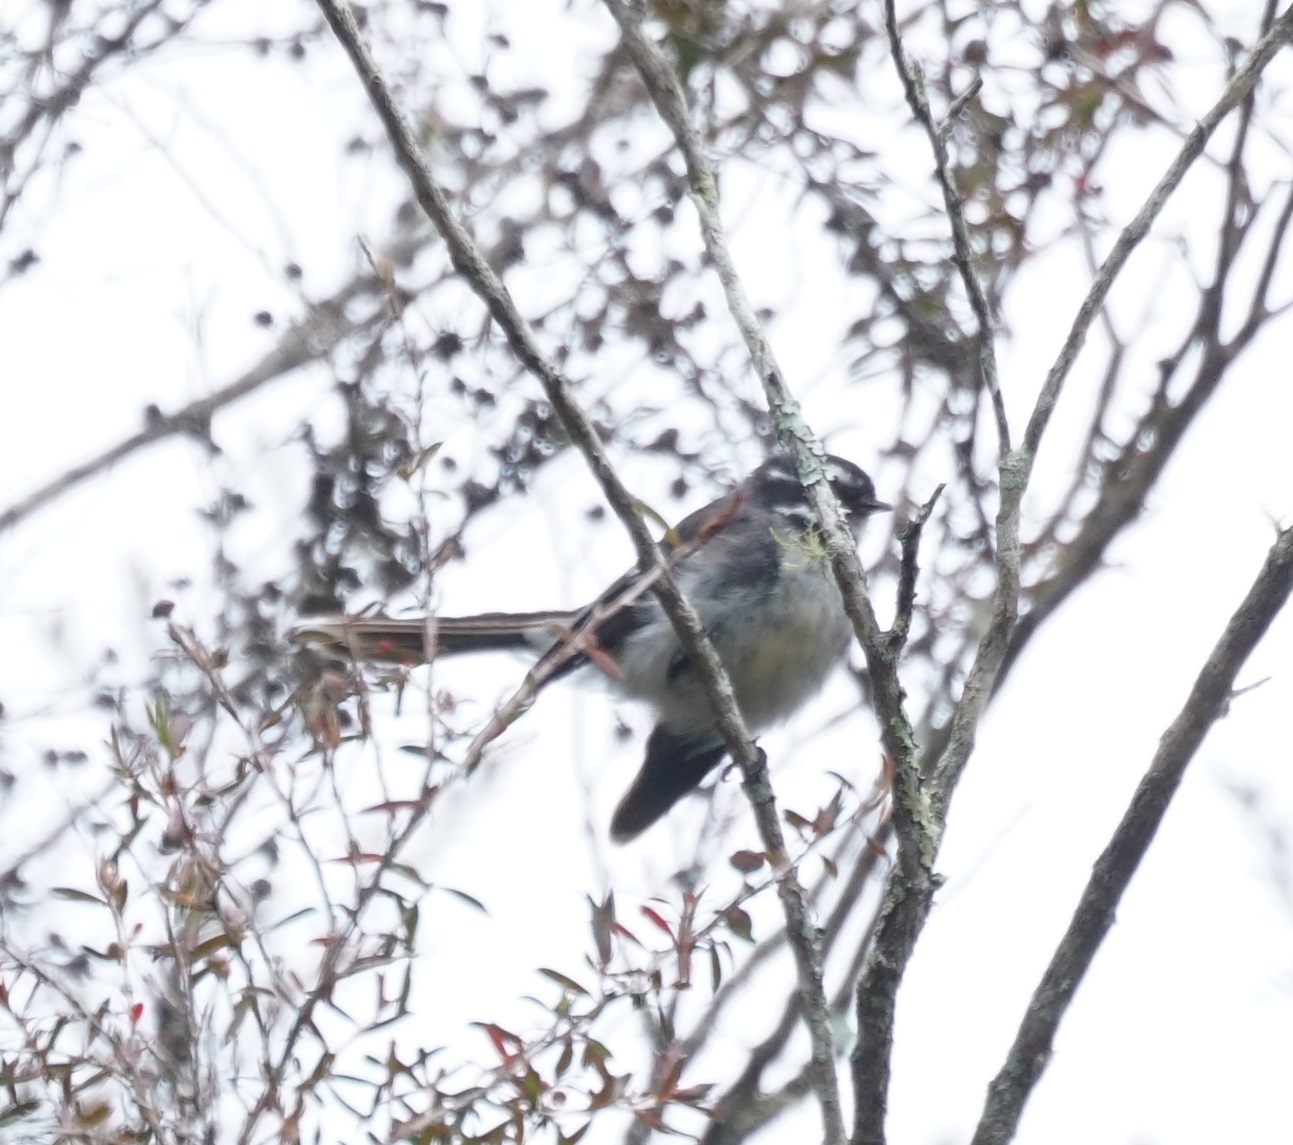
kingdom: Animalia
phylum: Chordata
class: Aves
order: Passeriformes
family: Rhipiduridae
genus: Rhipidura
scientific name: Rhipidura albiscapa
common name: Grey fantail
